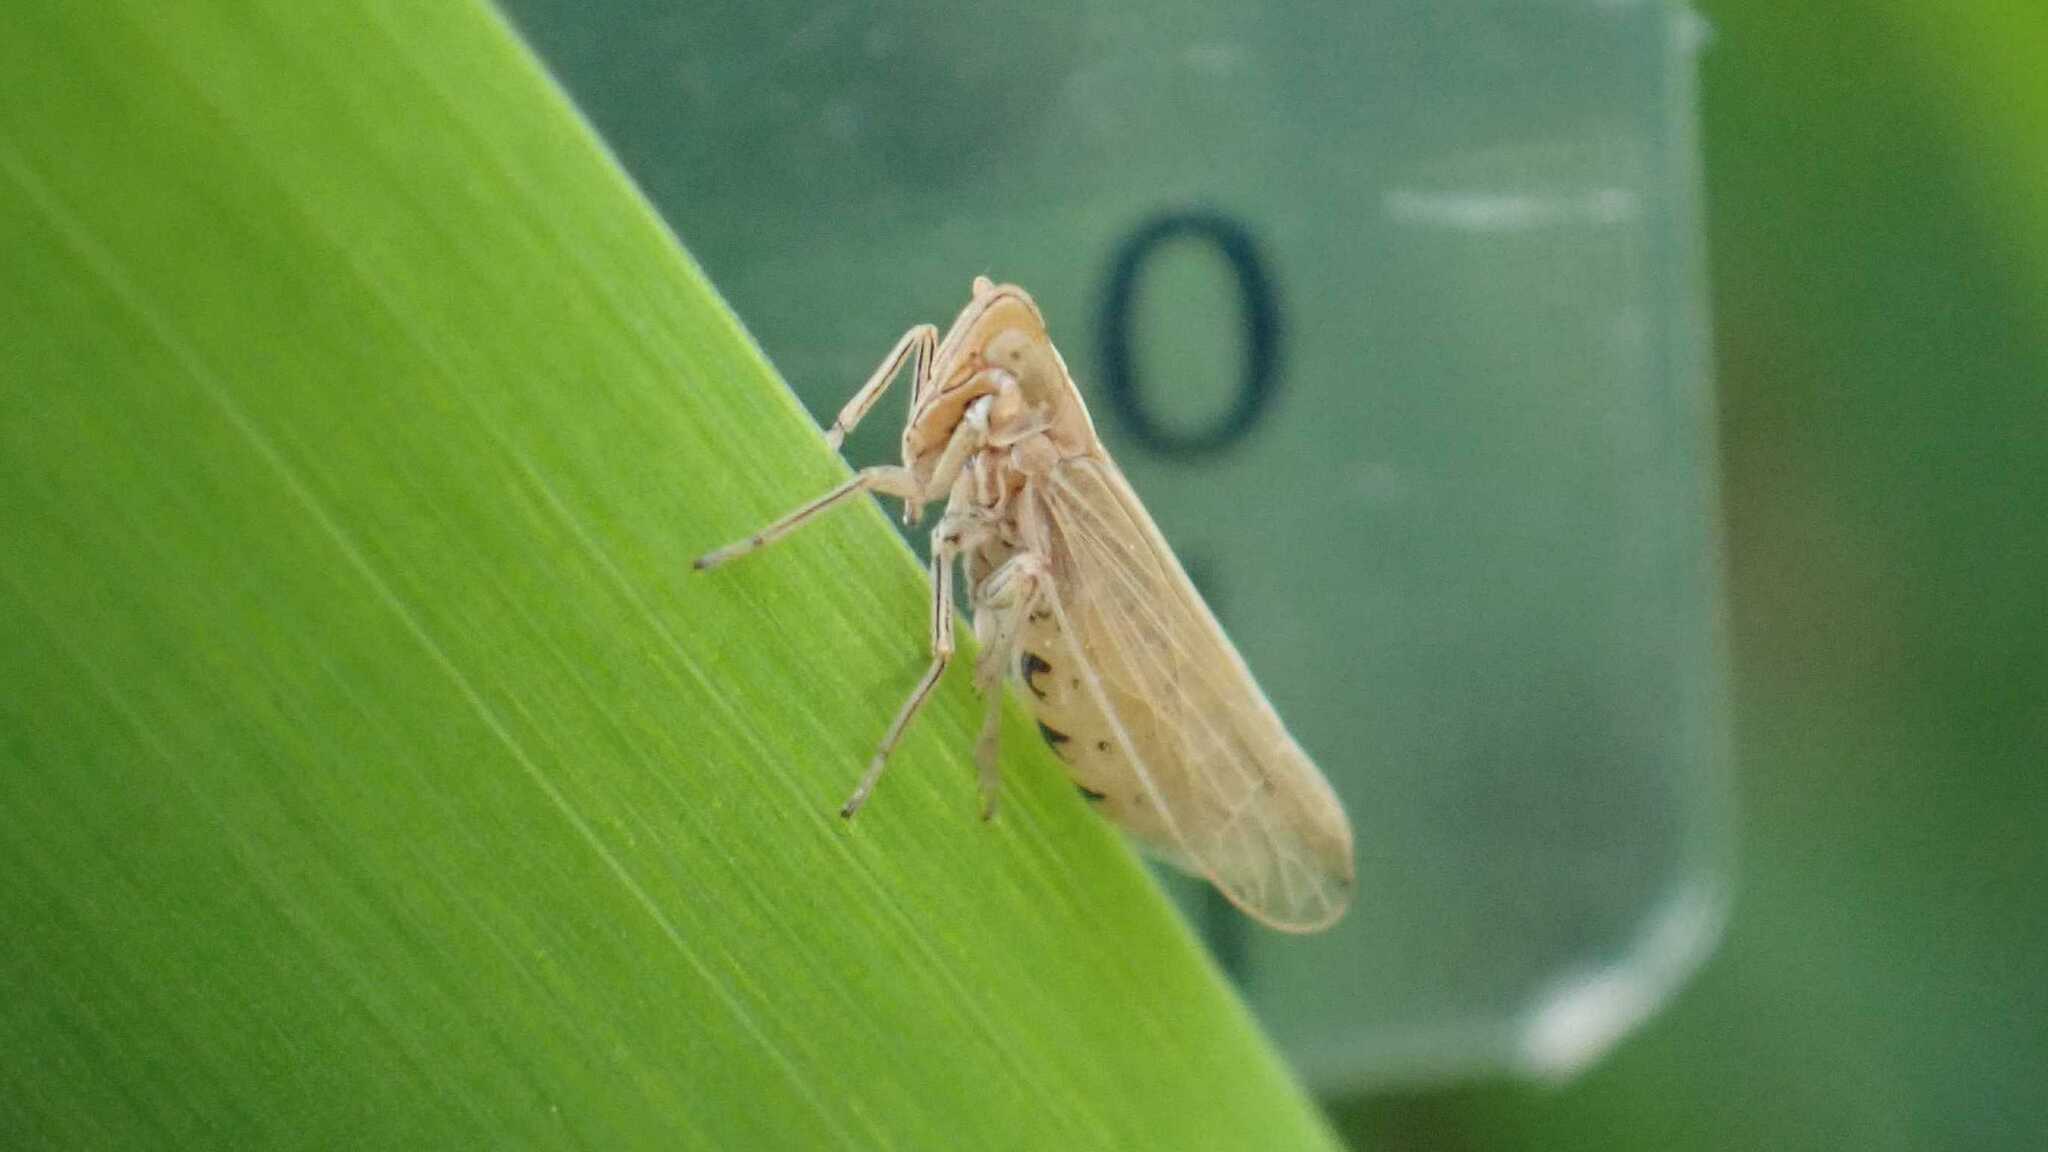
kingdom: Animalia
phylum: Arthropoda
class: Insecta
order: Hemiptera
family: Delphacidae
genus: Stenocranus
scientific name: Stenocranus major
